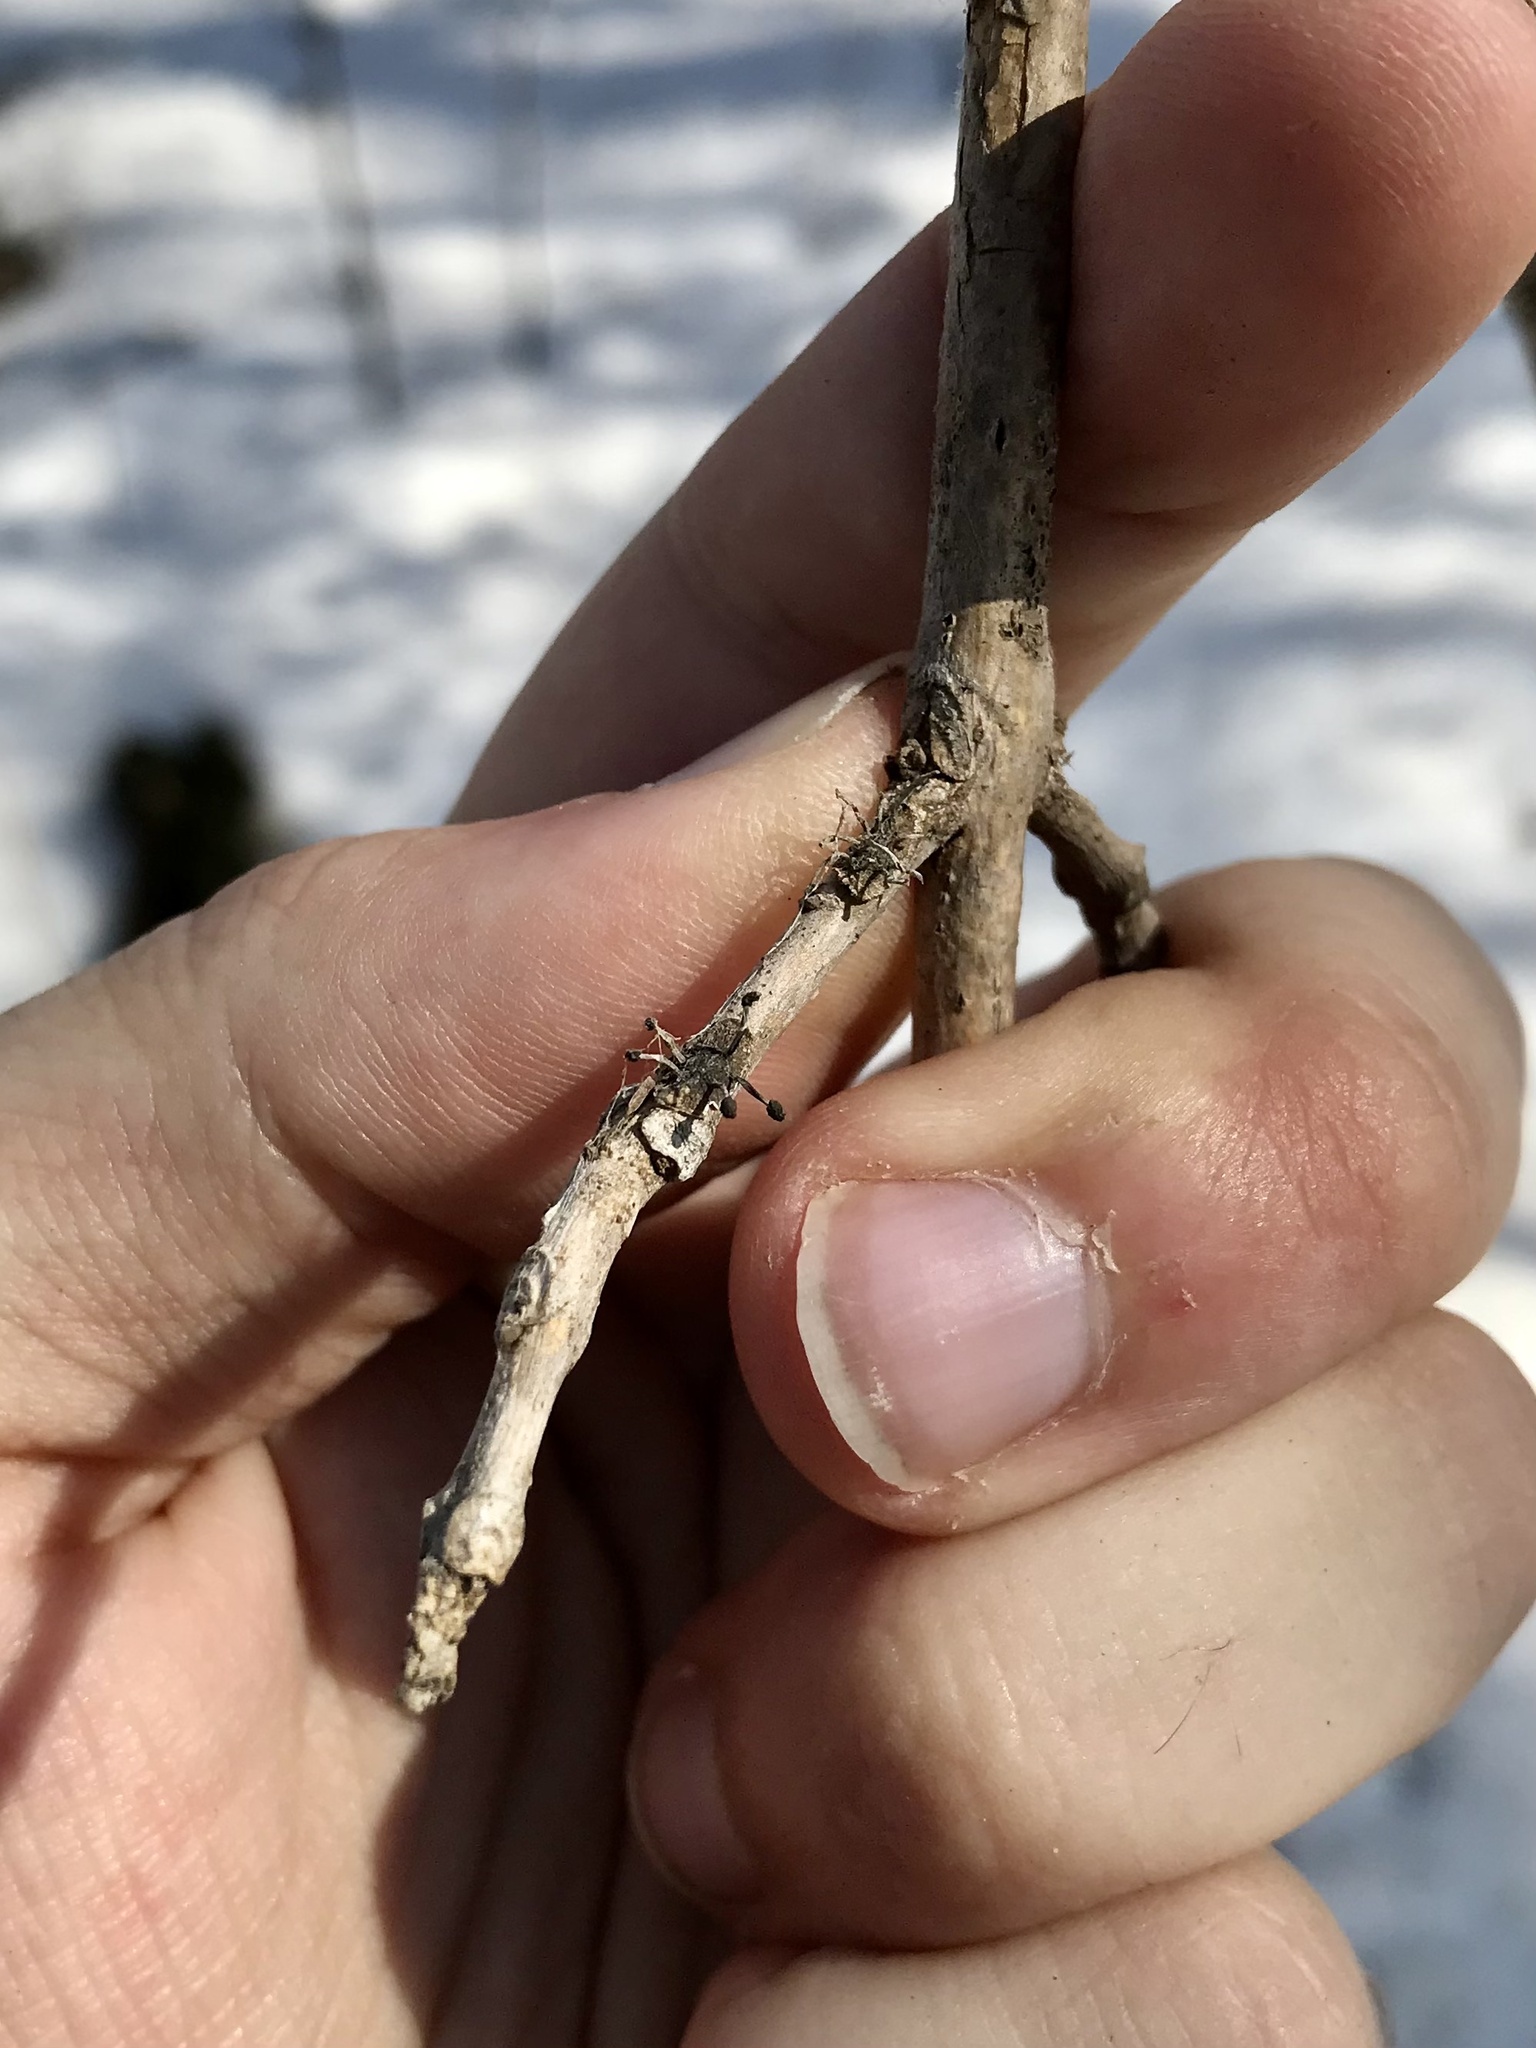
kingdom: Fungi
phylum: Ascomycota
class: Sordariomycetes
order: Hypocreales
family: Ophiocordycipitaceae
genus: Ophiocordyceps
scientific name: Ophiocordyceps clavulata
